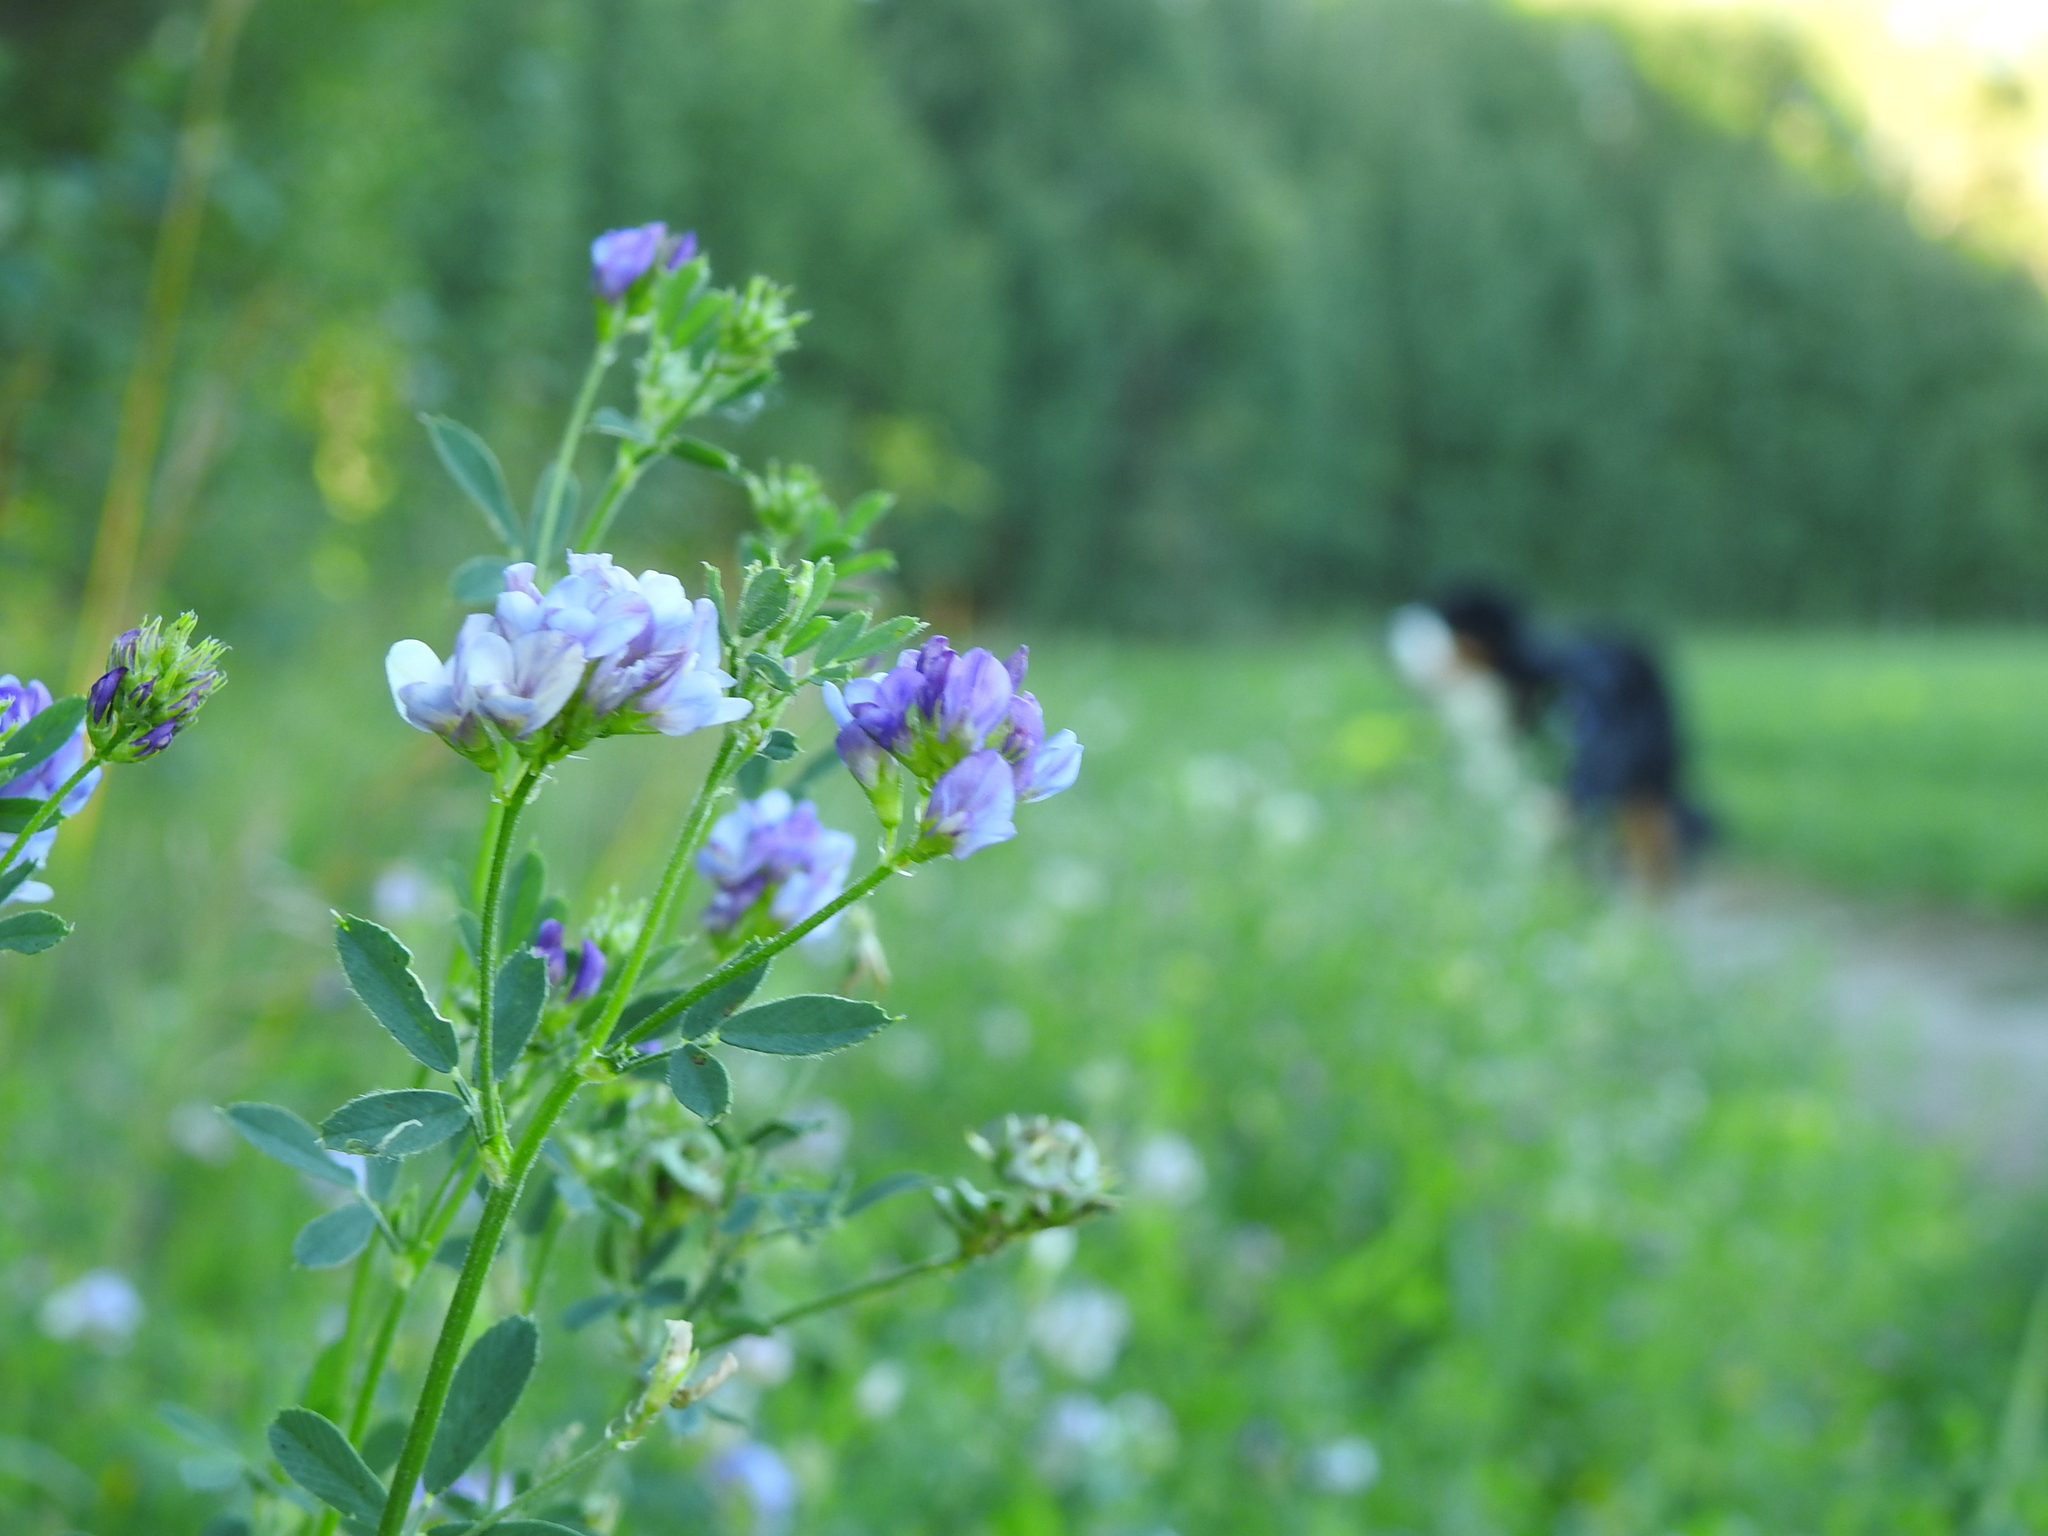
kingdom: Plantae
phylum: Tracheophyta
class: Magnoliopsida
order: Fabales
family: Fabaceae
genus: Medicago
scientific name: Medicago sativa
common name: Alfalfa
